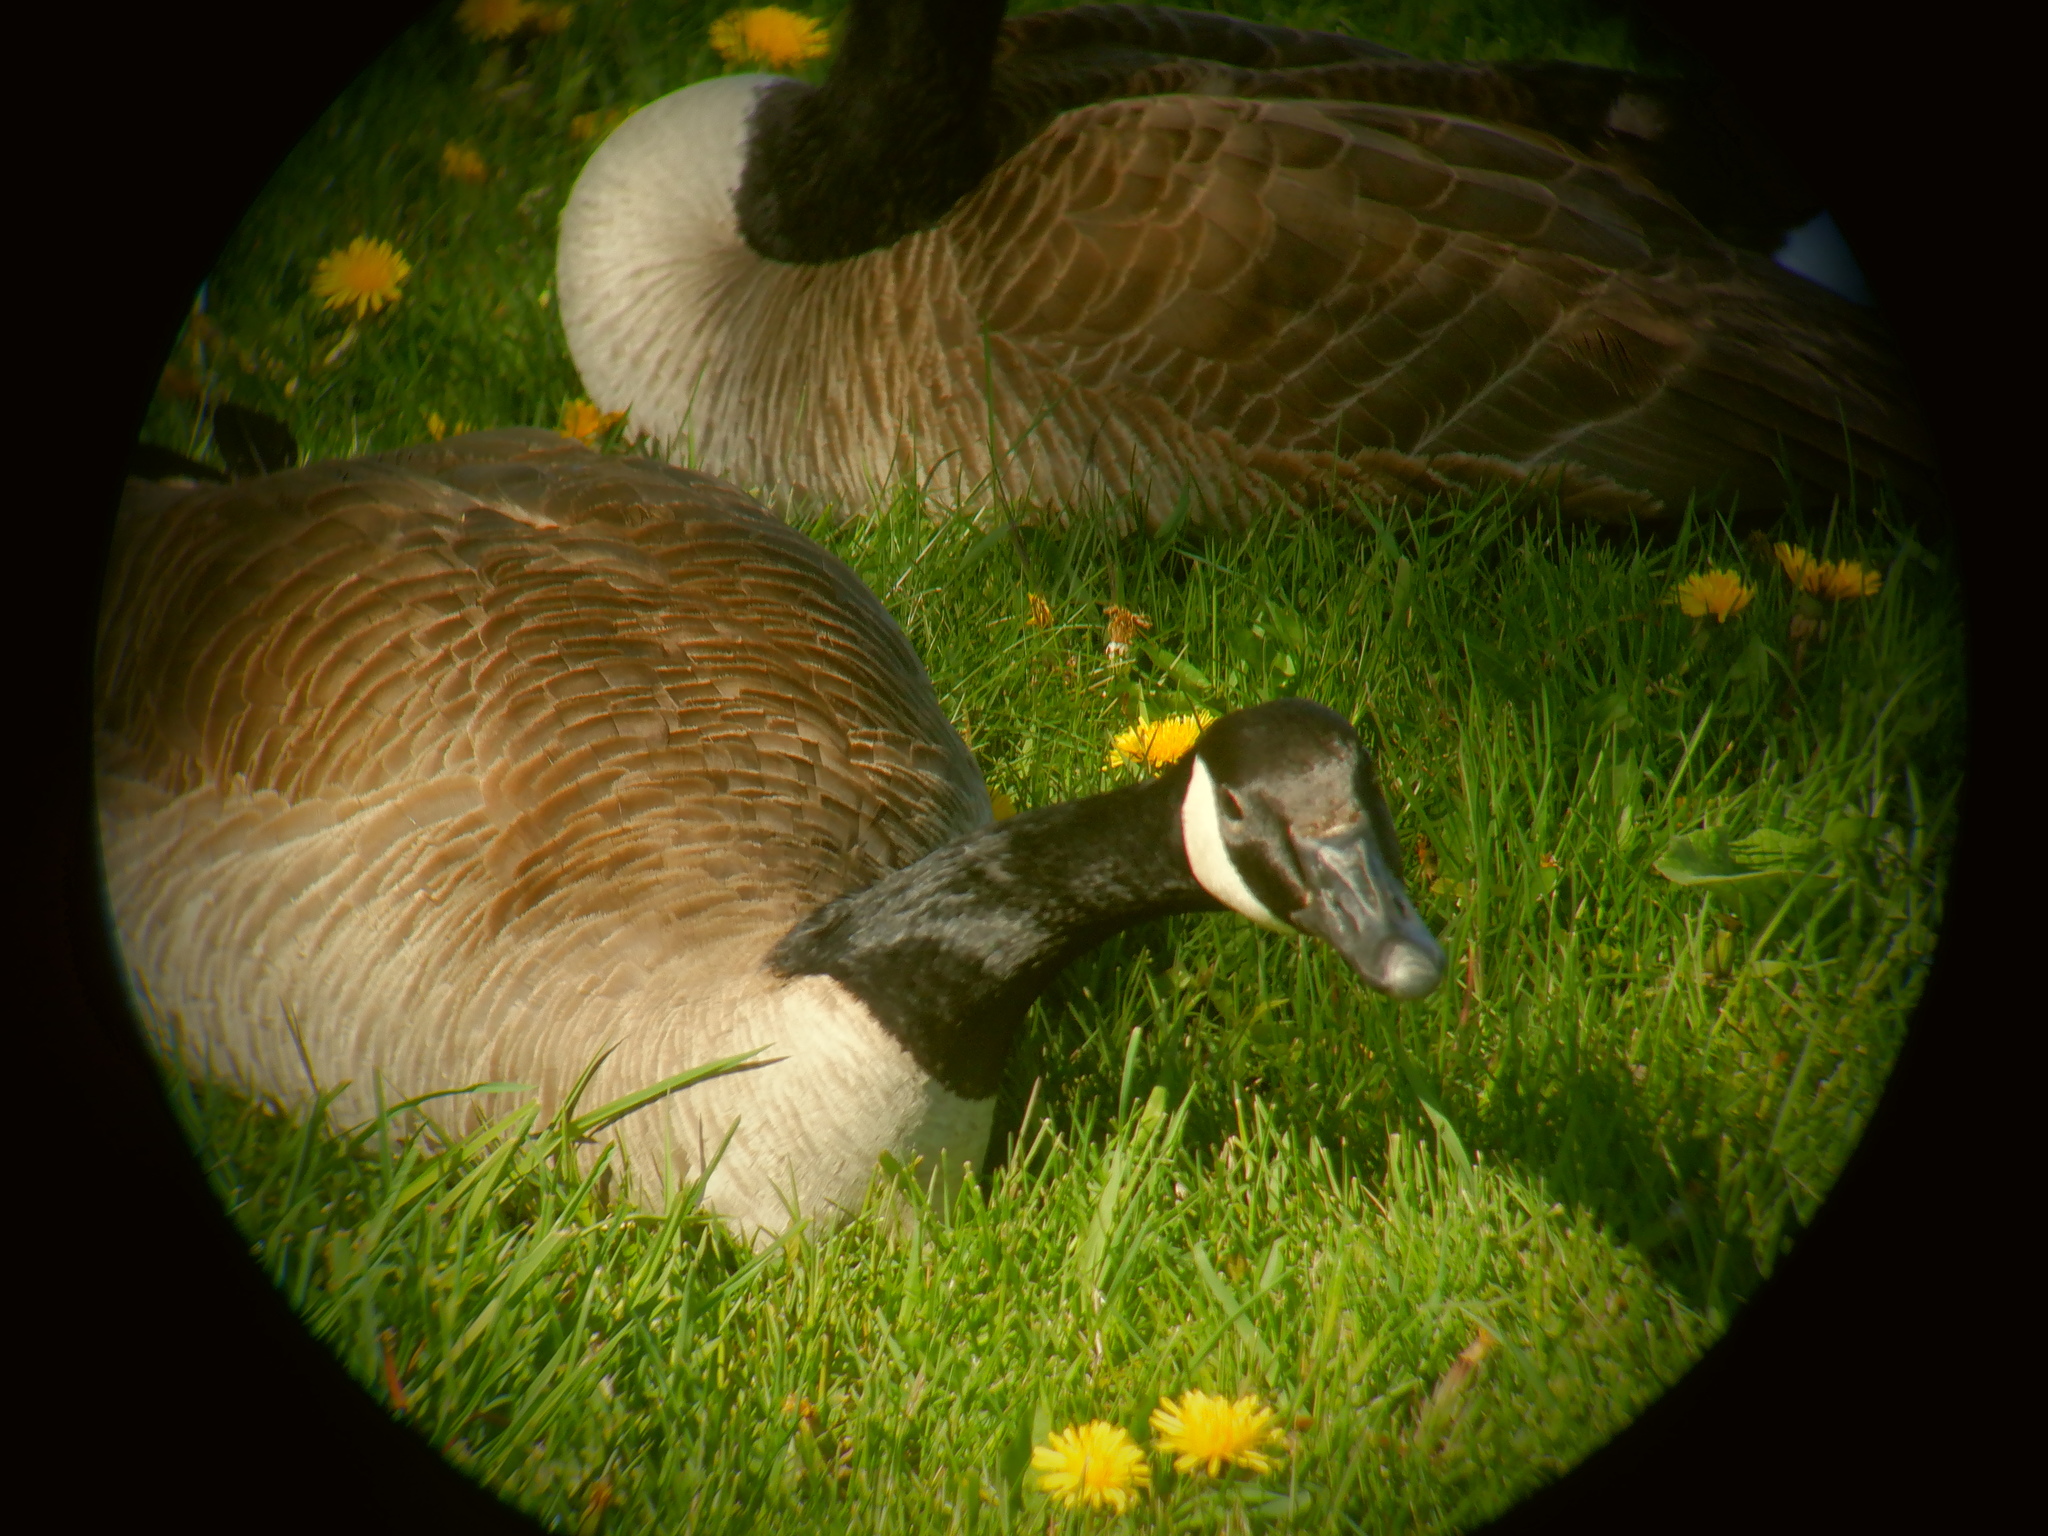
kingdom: Animalia
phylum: Chordata
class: Aves
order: Anseriformes
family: Anatidae
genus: Branta
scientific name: Branta canadensis
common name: Canada goose
